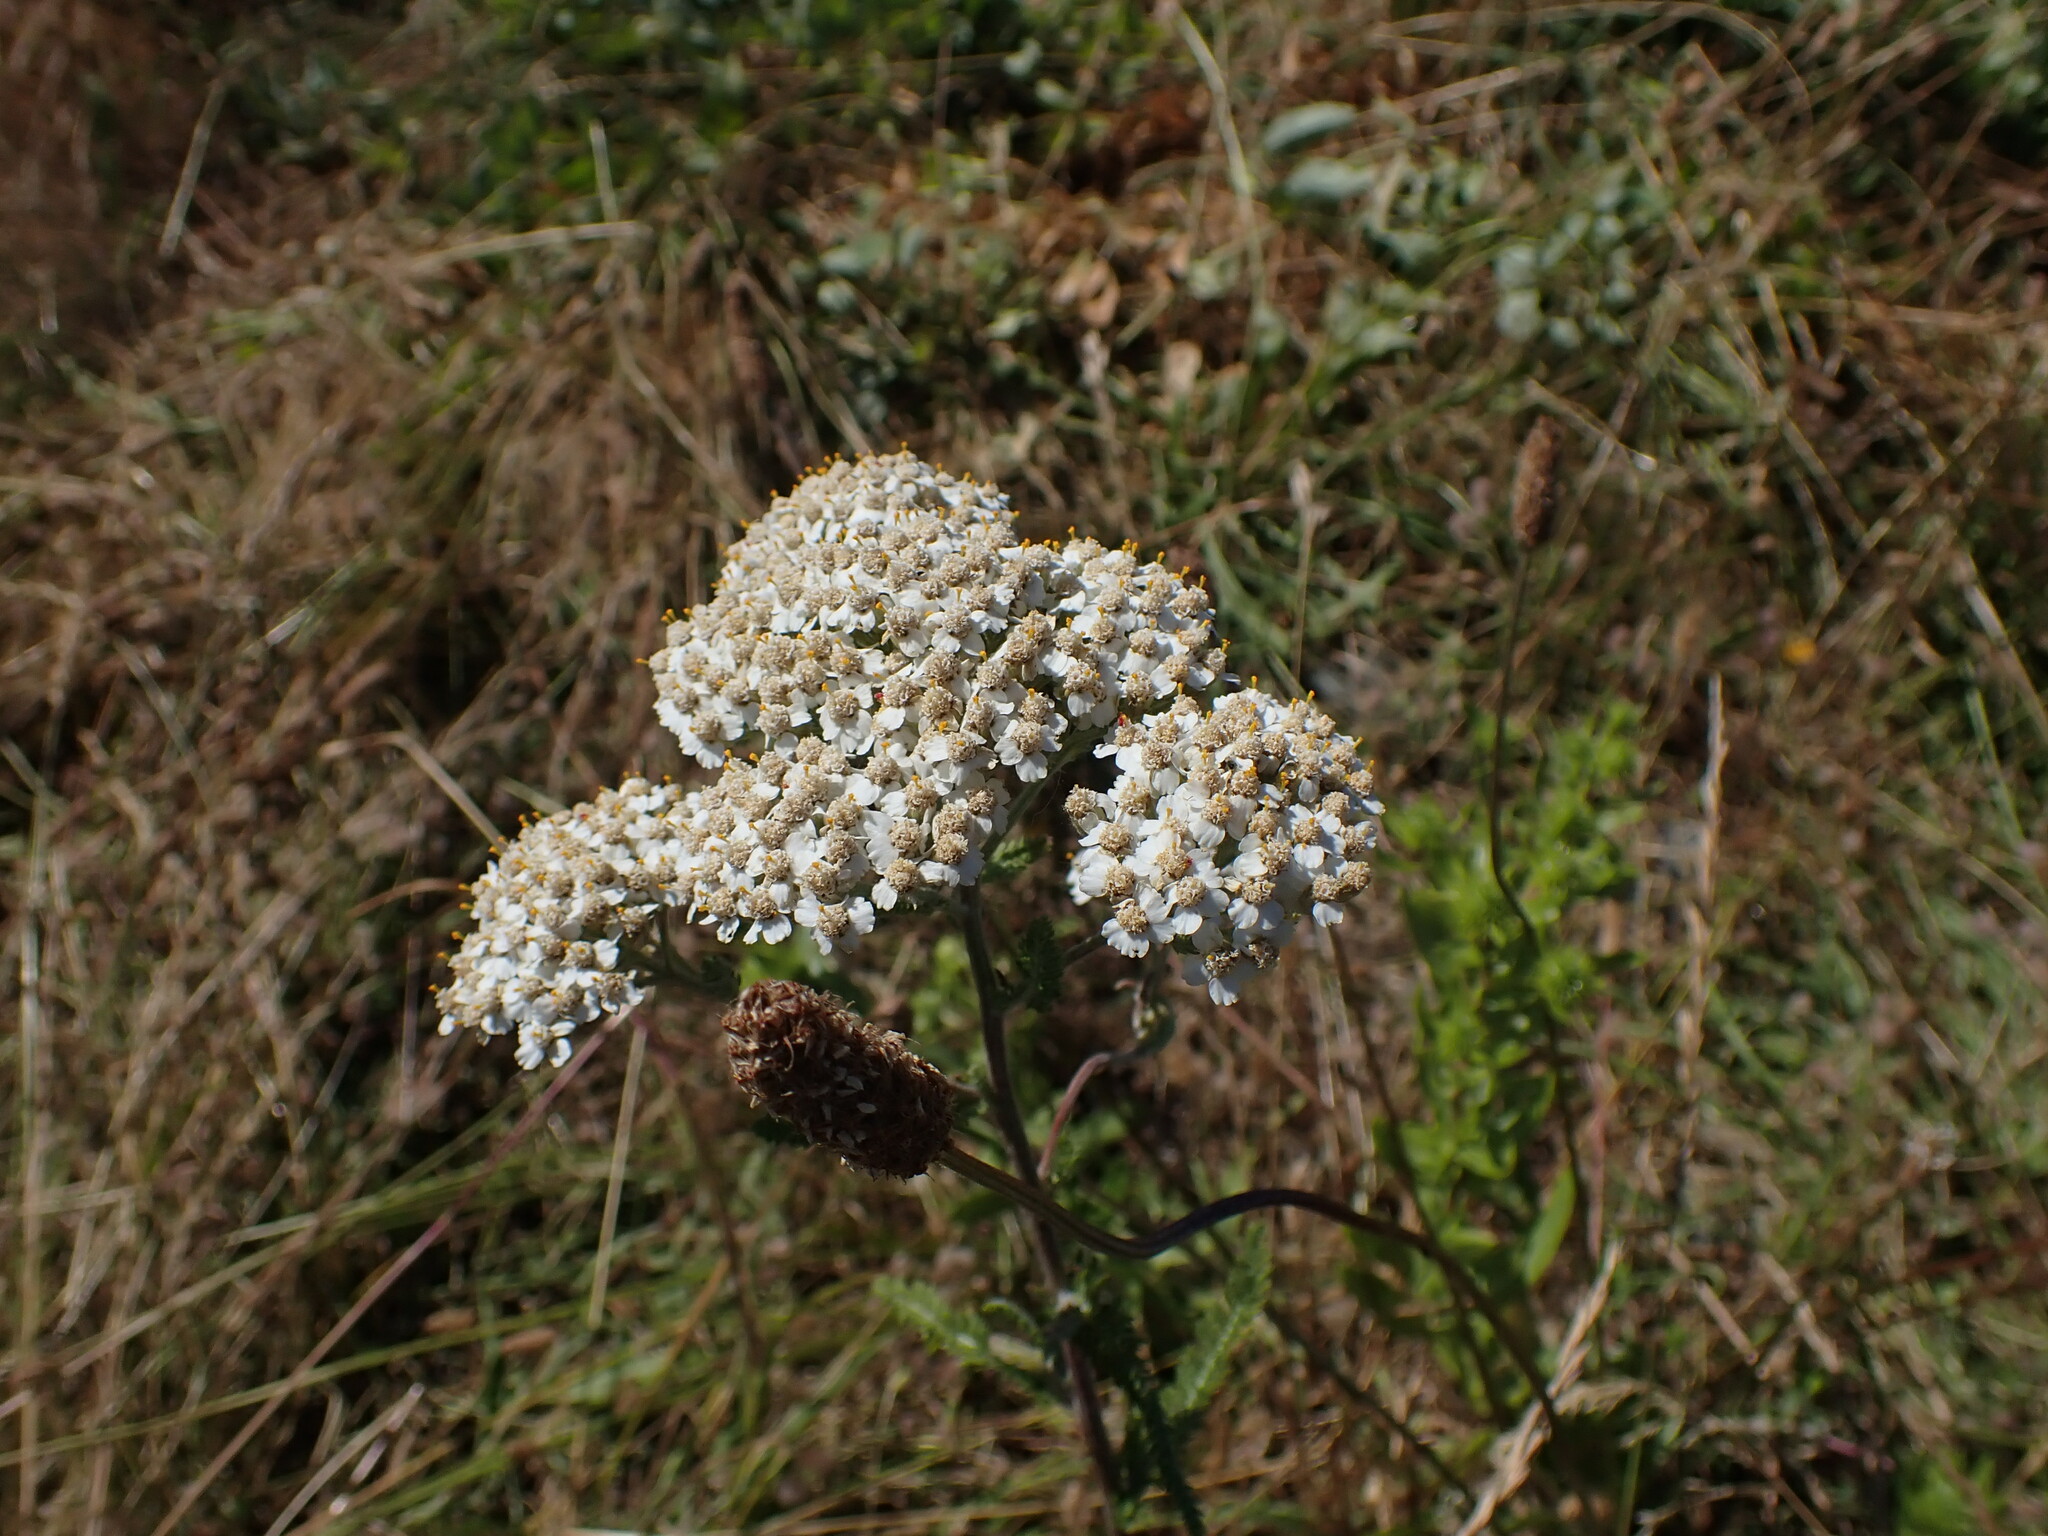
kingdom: Plantae
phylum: Tracheophyta
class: Magnoliopsida
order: Asterales
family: Asteraceae
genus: Achillea
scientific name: Achillea millefolium
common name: Yarrow
